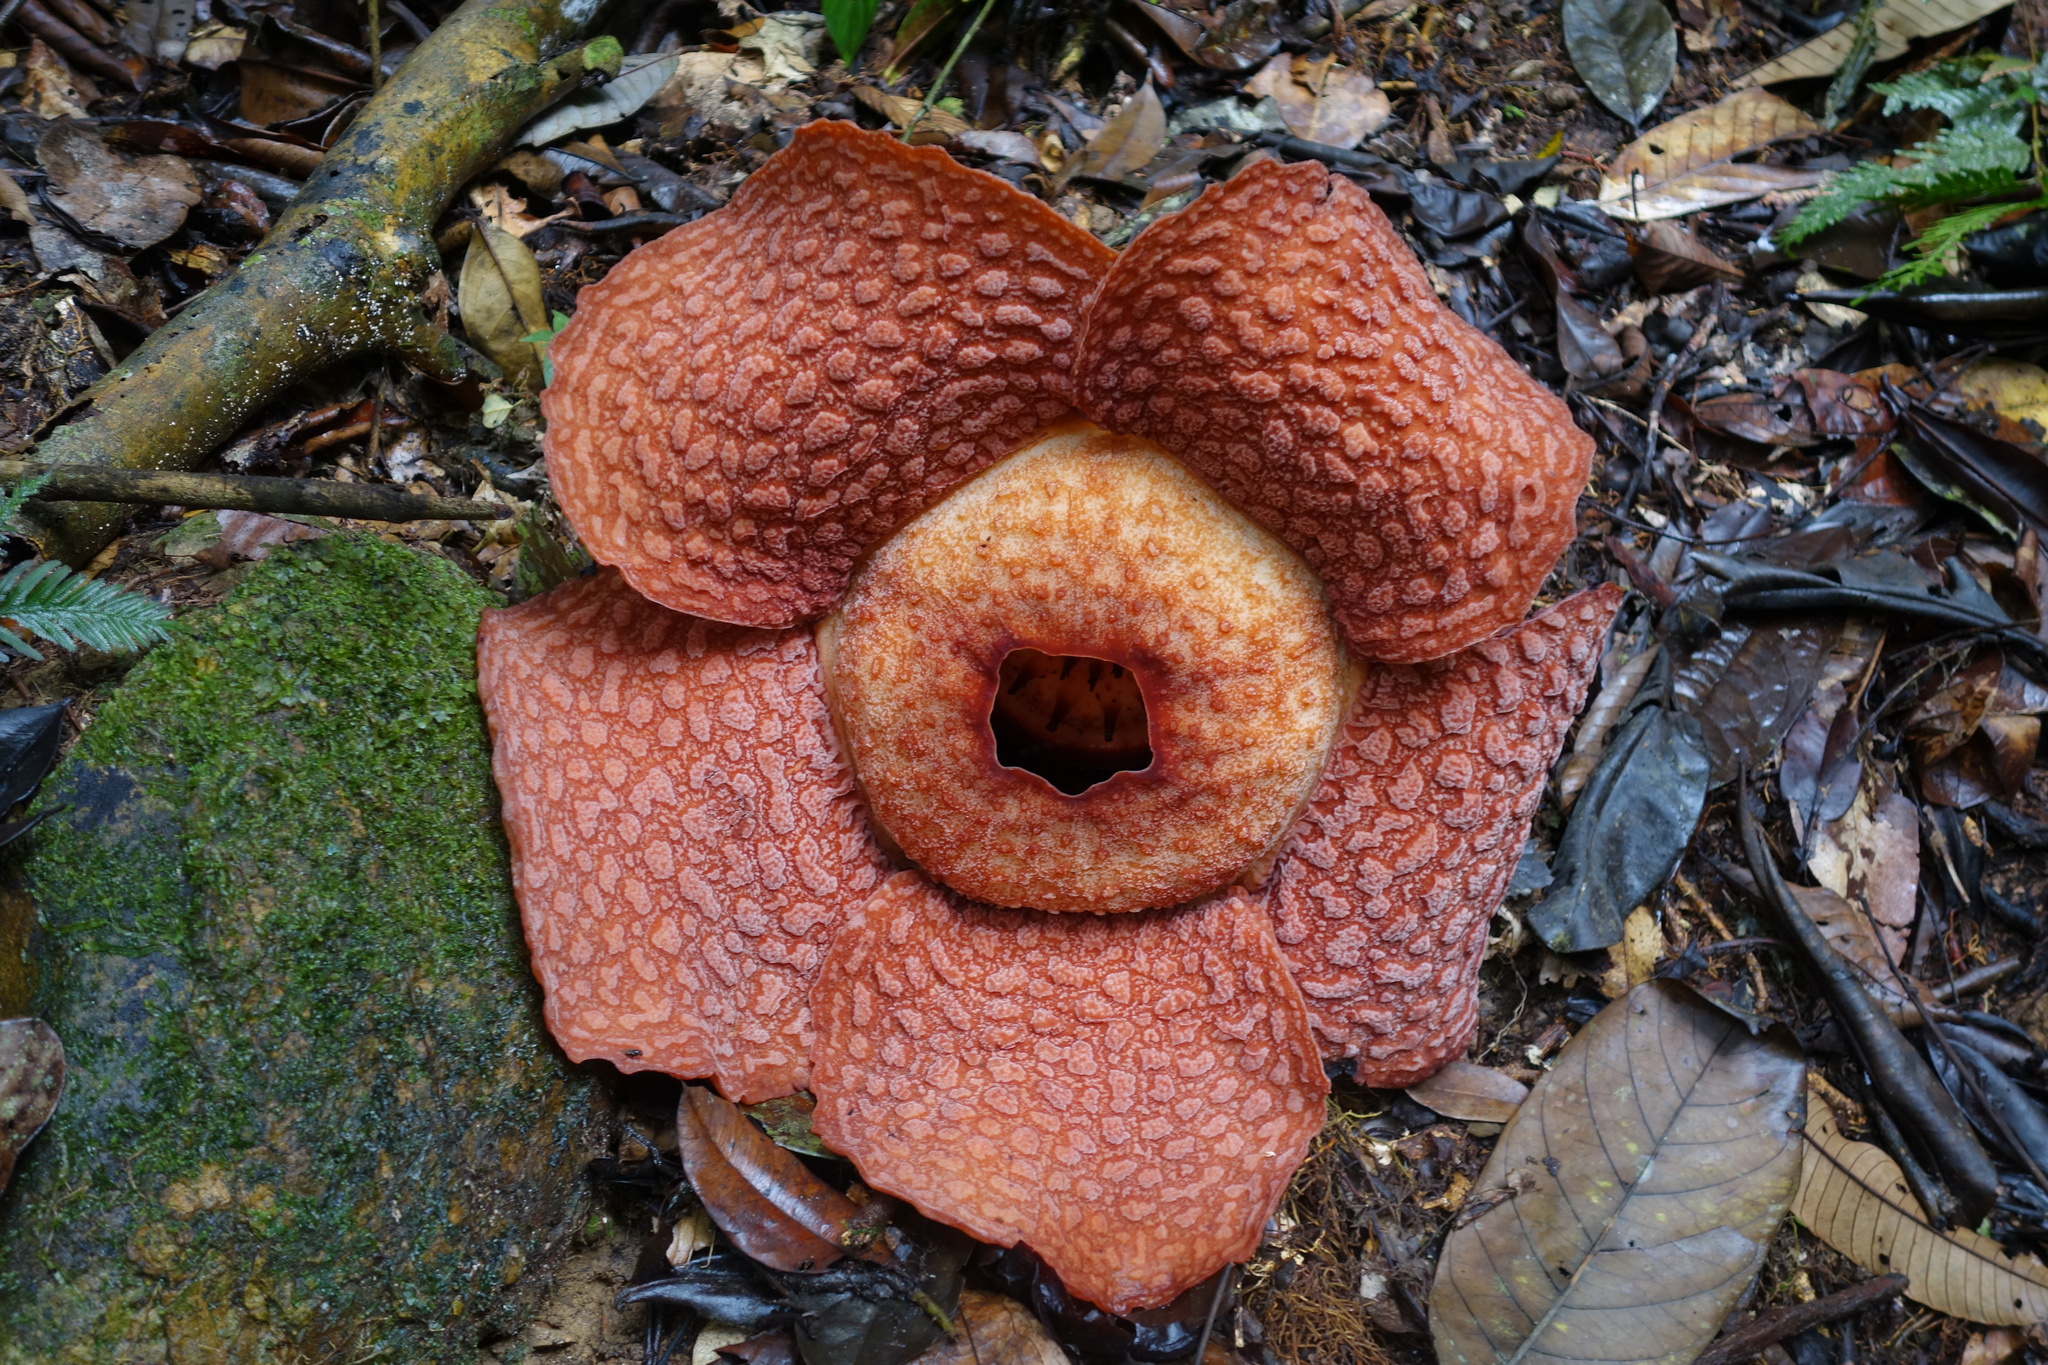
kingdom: Plantae
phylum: Tracheophyta
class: Magnoliopsida
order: Malpighiales
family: Rafflesiaceae
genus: Rafflesia
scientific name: Rafflesia micropylora
